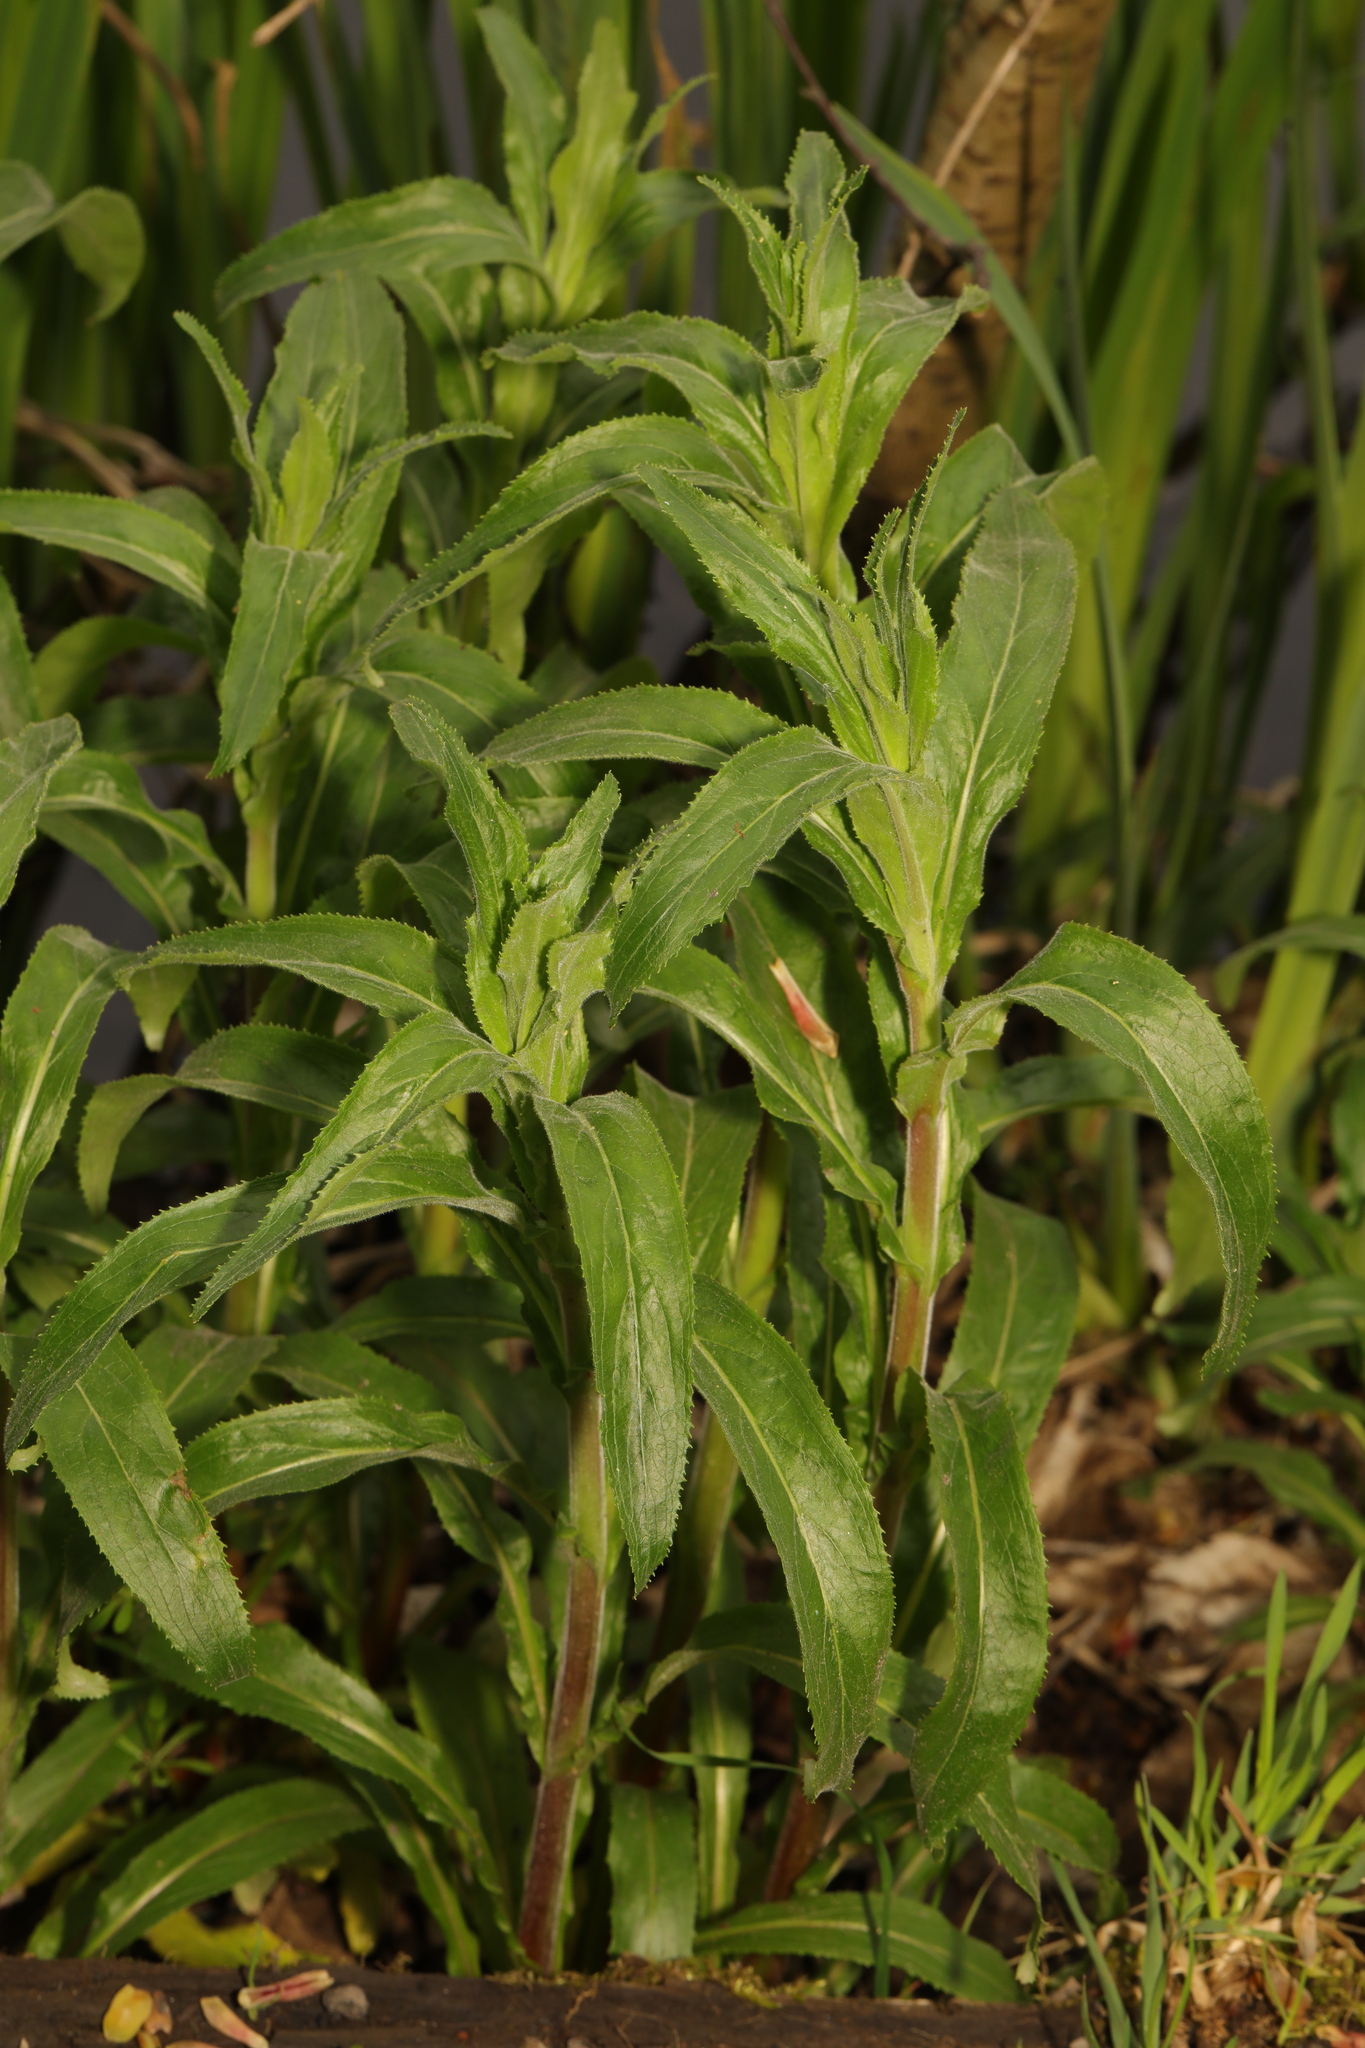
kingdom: Plantae
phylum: Tracheophyta
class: Magnoliopsida
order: Myrtales
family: Onagraceae
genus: Epilobium
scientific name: Epilobium hirsutum
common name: Great willowherb
